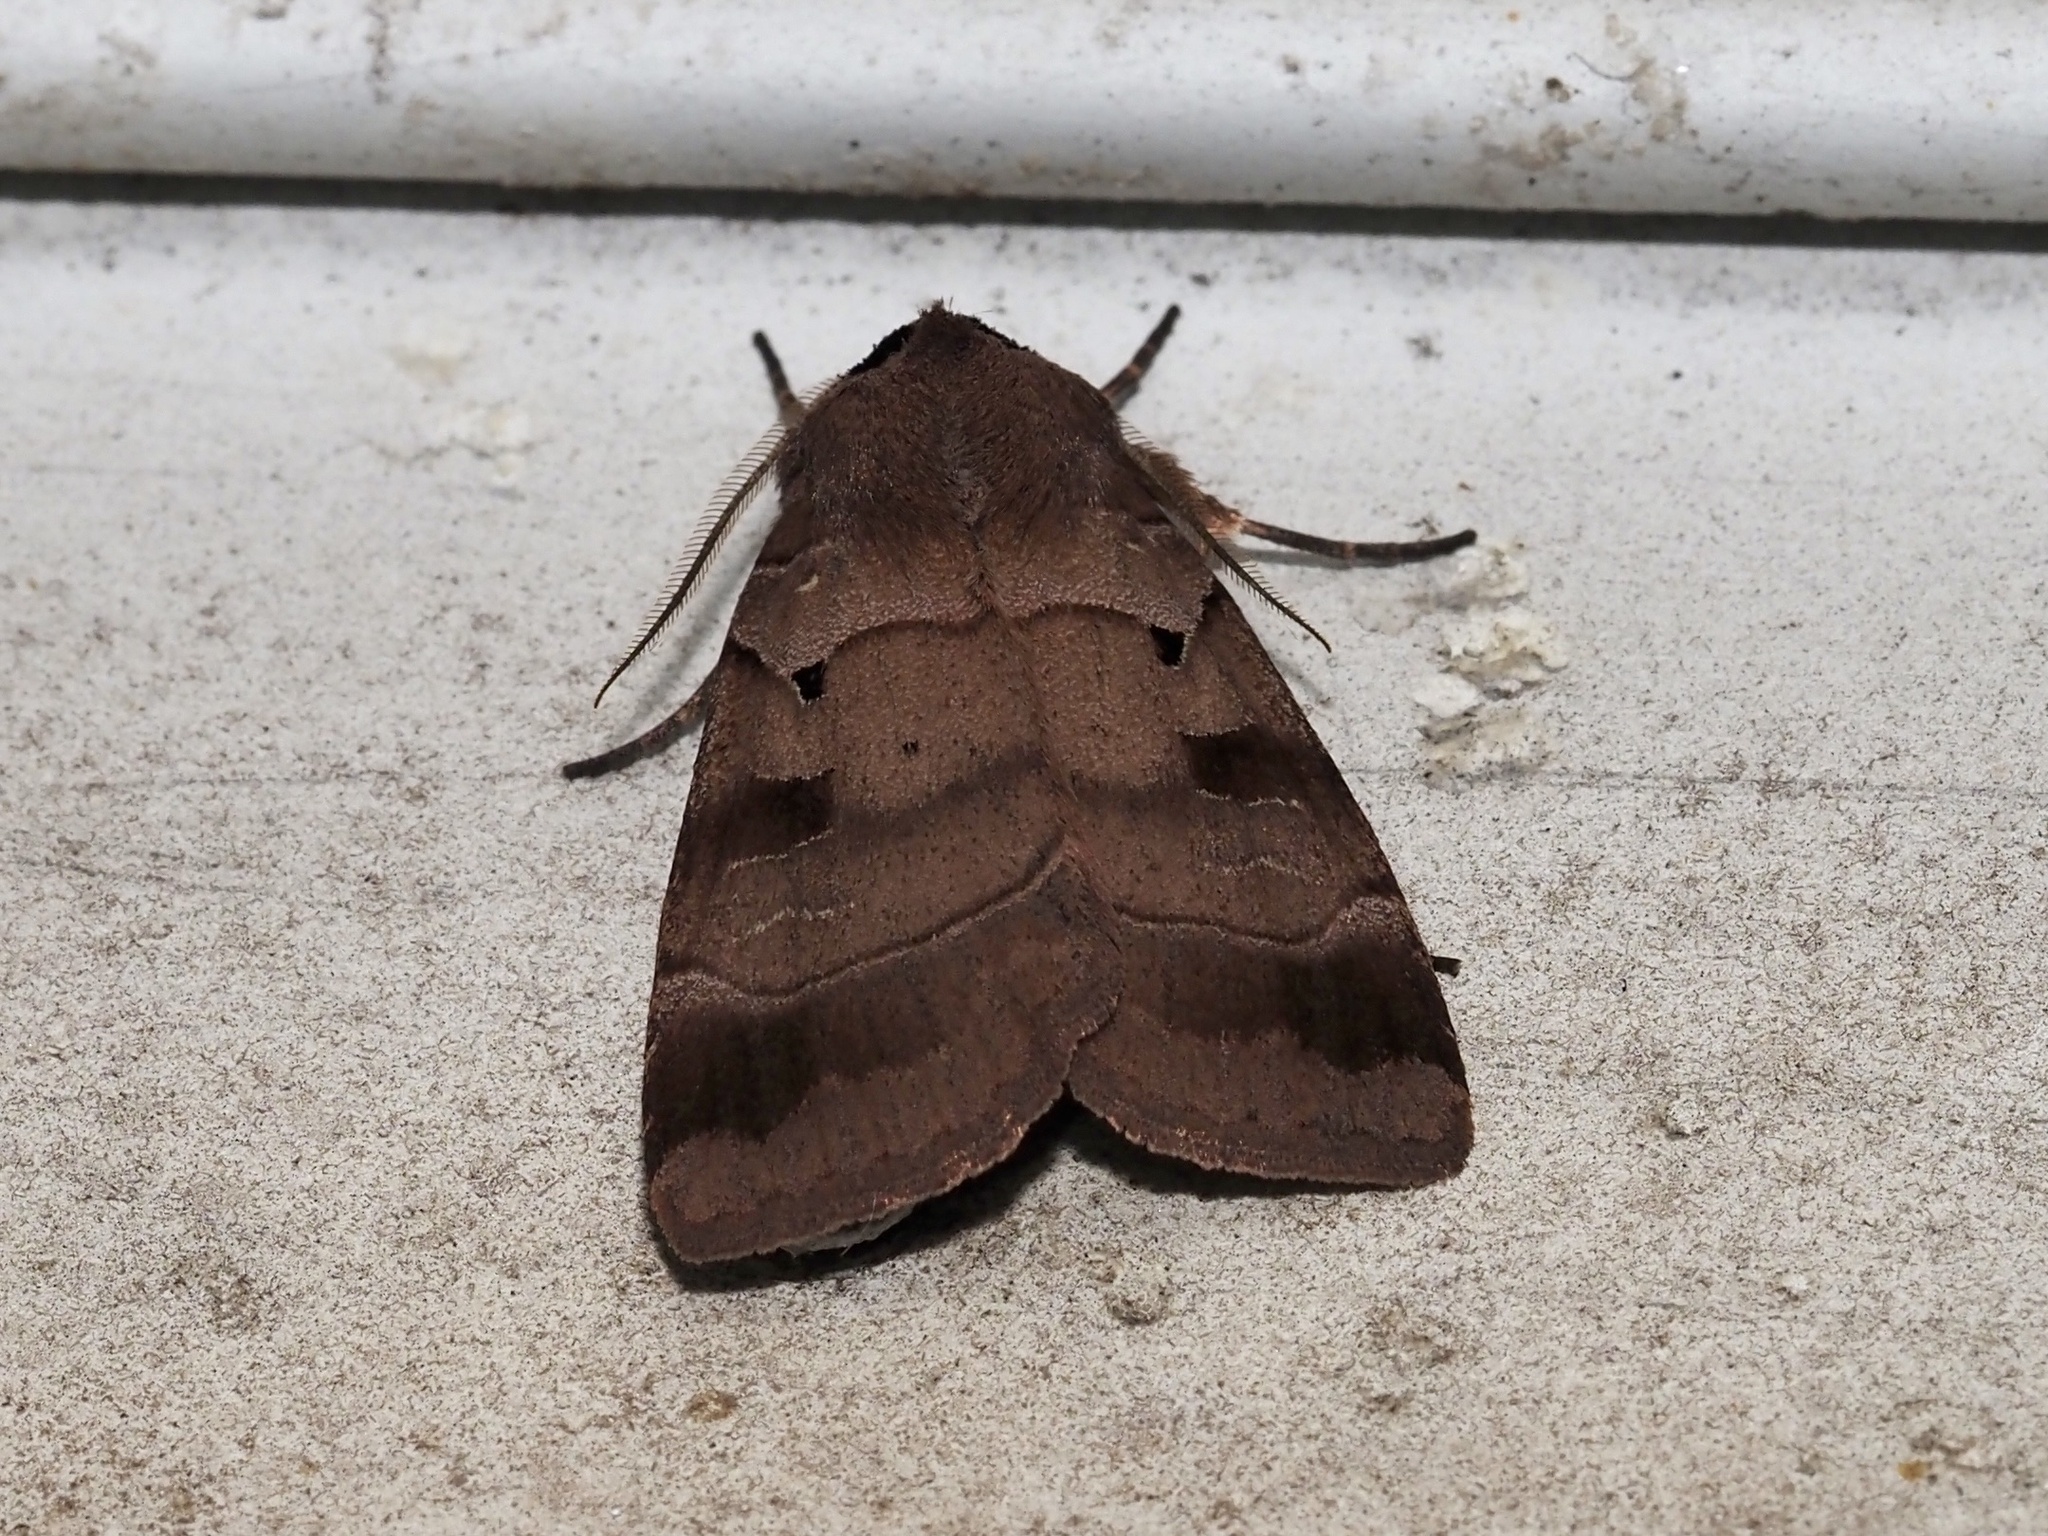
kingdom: Animalia
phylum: Arthropoda
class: Insecta
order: Lepidoptera
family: Noctuidae
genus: Agnorisma
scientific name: Agnorisma badinodis
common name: Pale-banded dart
